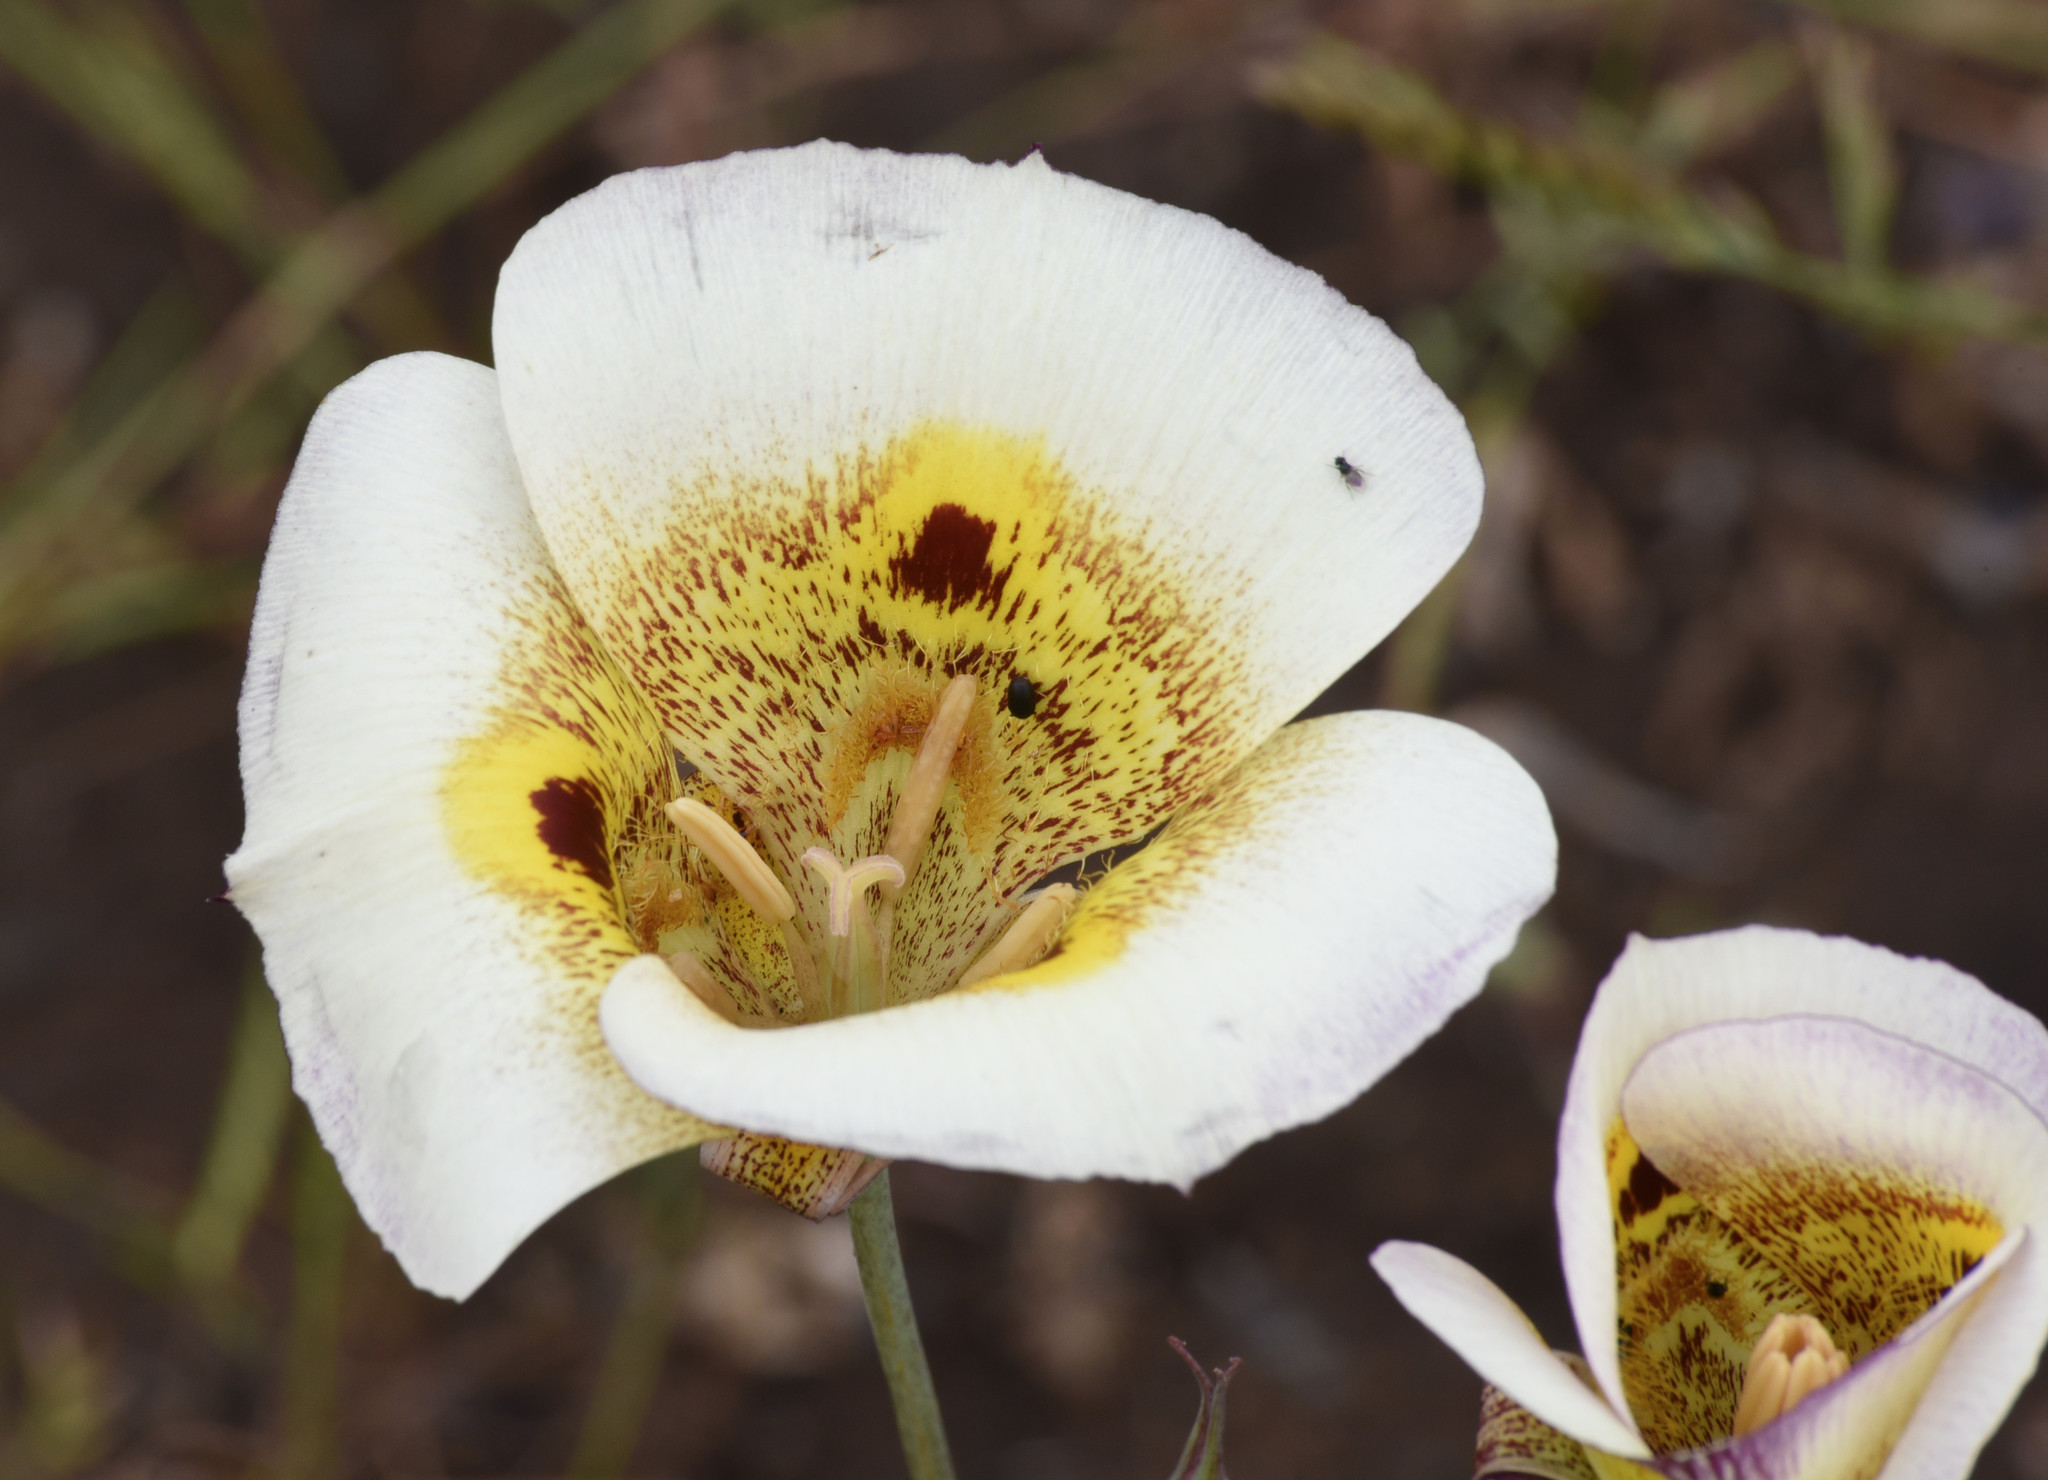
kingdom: Plantae
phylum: Tracheophyta
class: Liliopsida
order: Liliales
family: Liliaceae
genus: Calochortus
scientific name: Calochortus superbus
